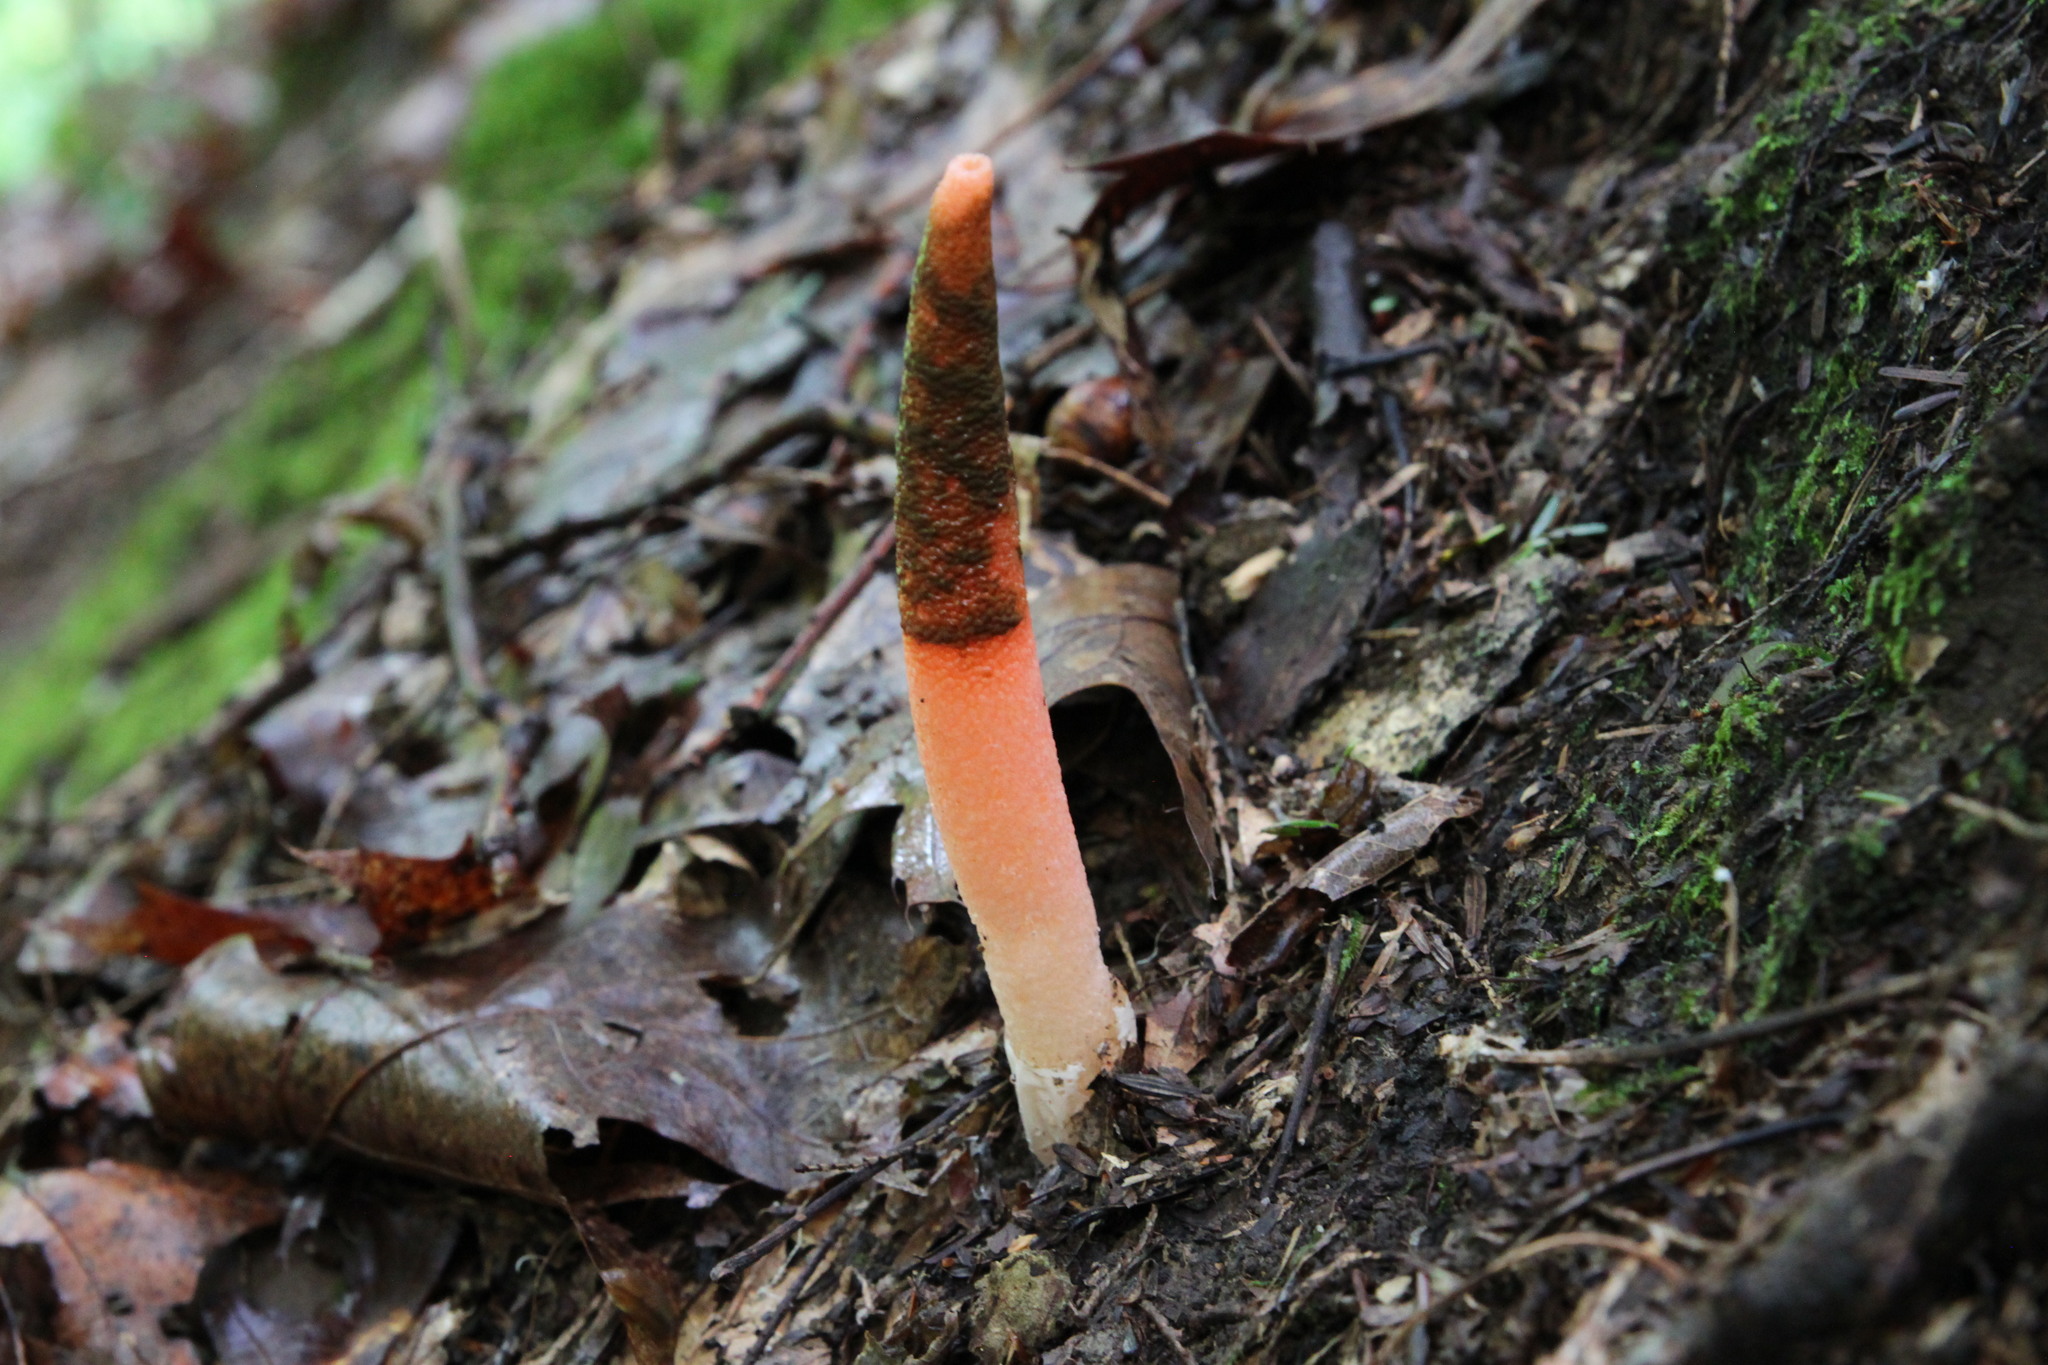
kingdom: Fungi
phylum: Basidiomycota
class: Agaricomycetes
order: Phallales
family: Phallaceae
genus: Mutinus
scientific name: Mutinus elegans
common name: Devil's dipstick
